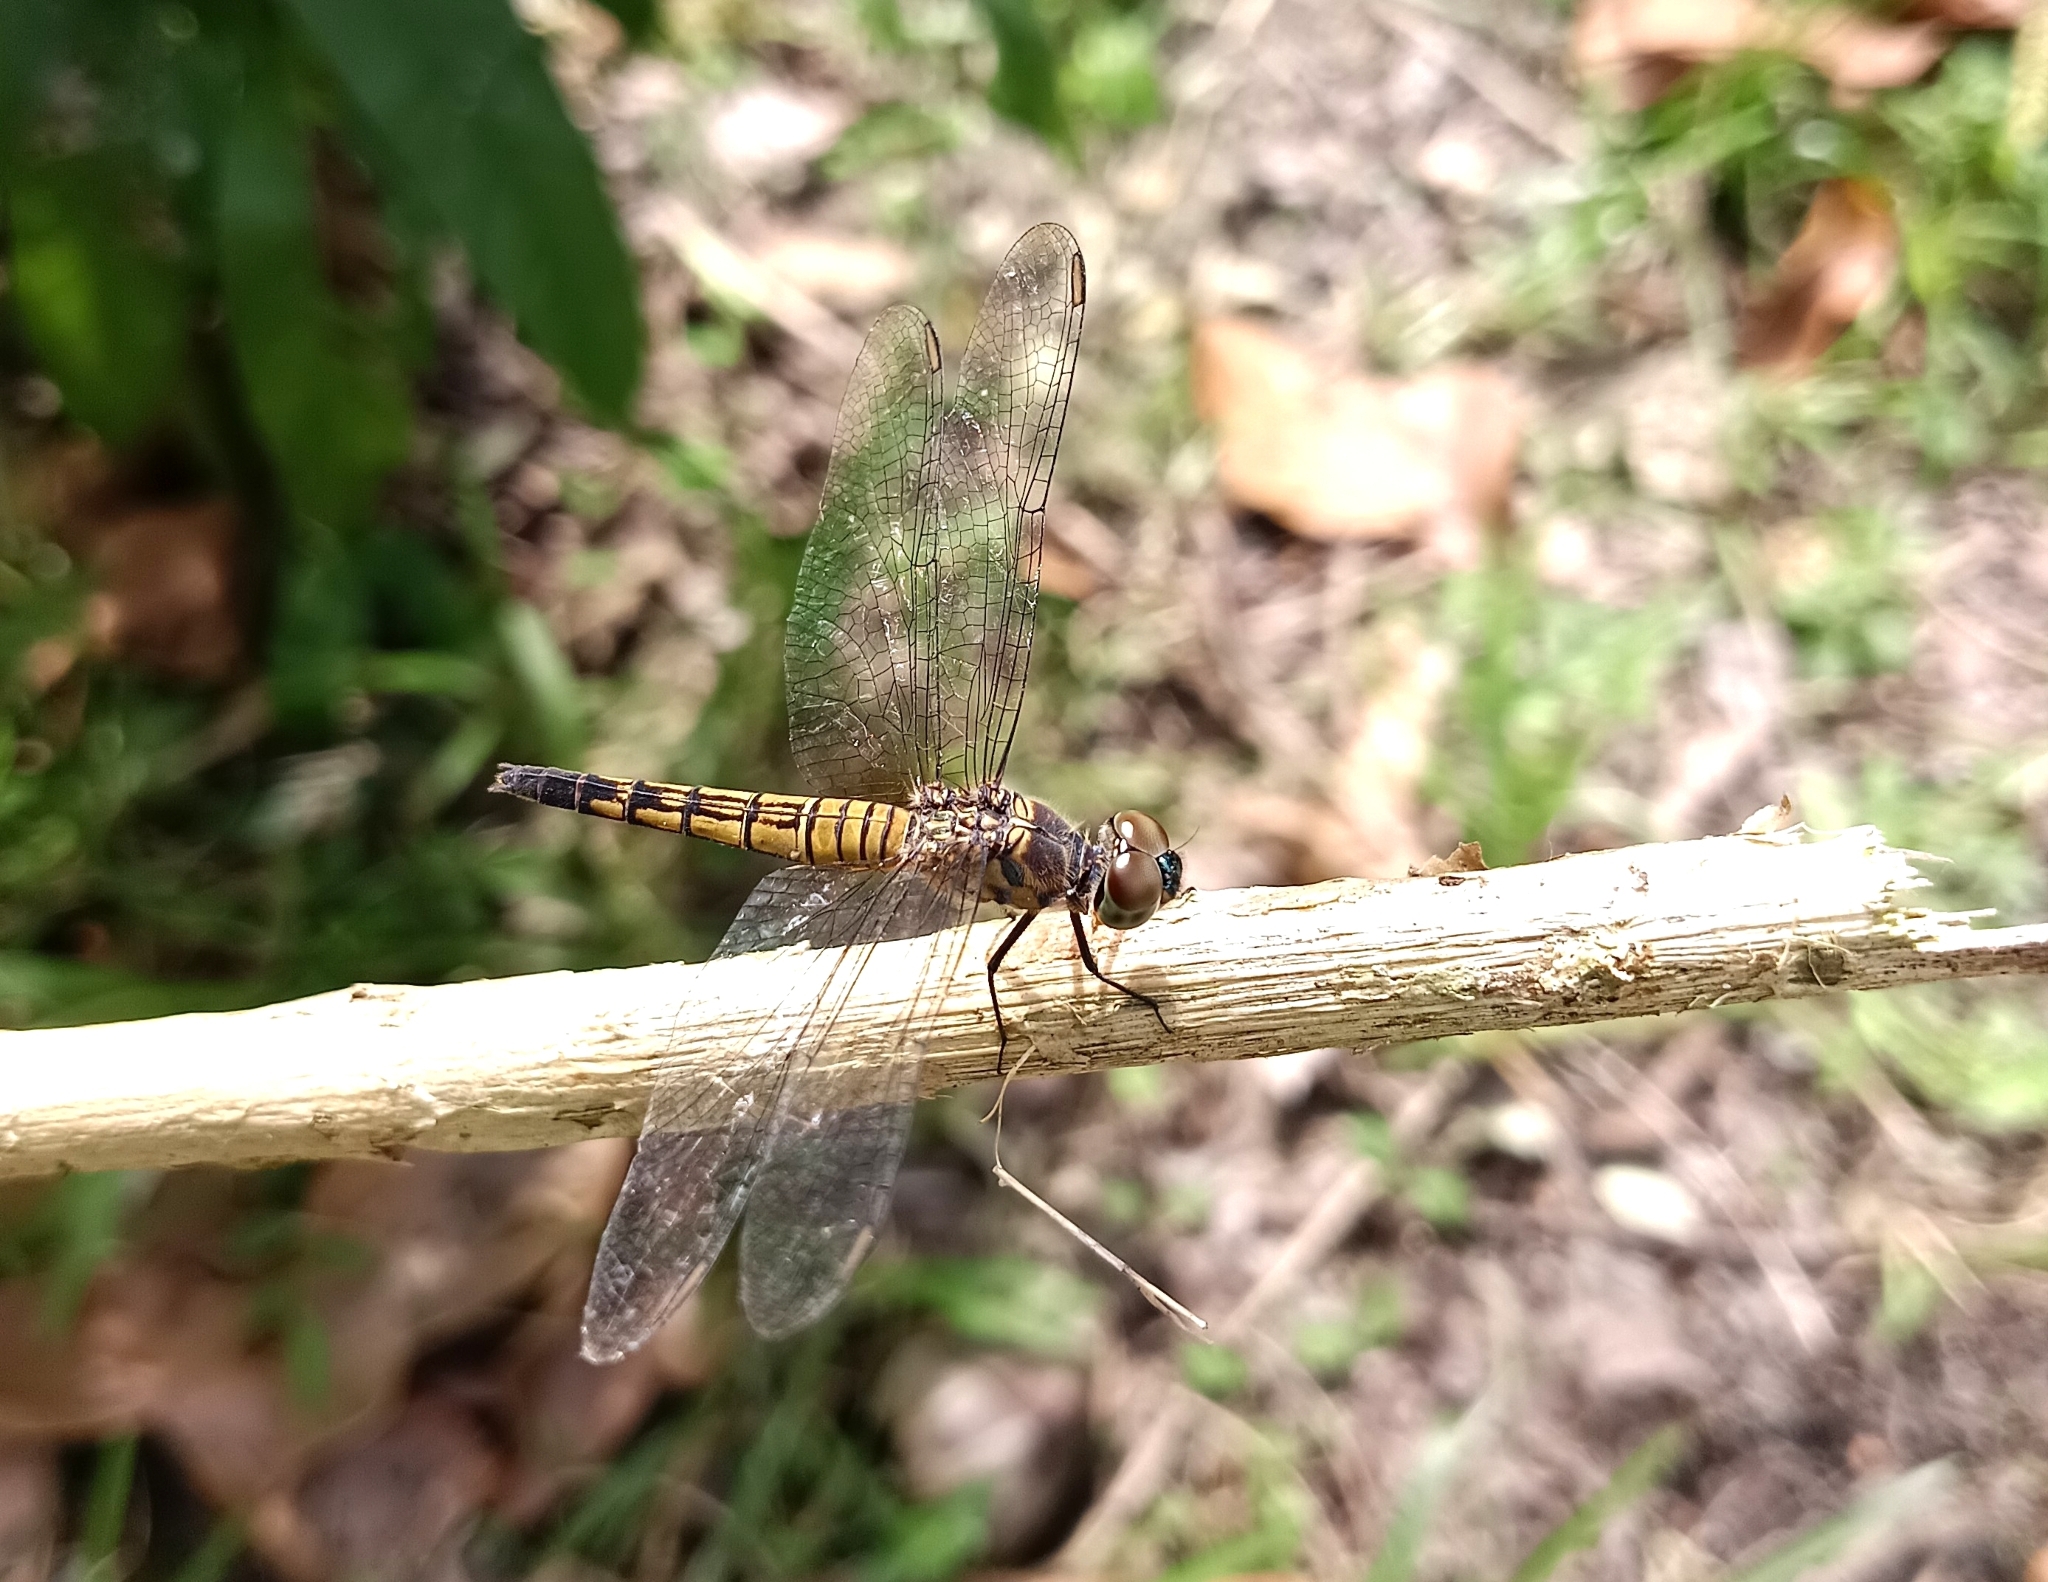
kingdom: Animalia
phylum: Arthropoda
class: Insecta
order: Odonata
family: Libellulidae
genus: Brachydiplax
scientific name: Brachydiplax chalybea
